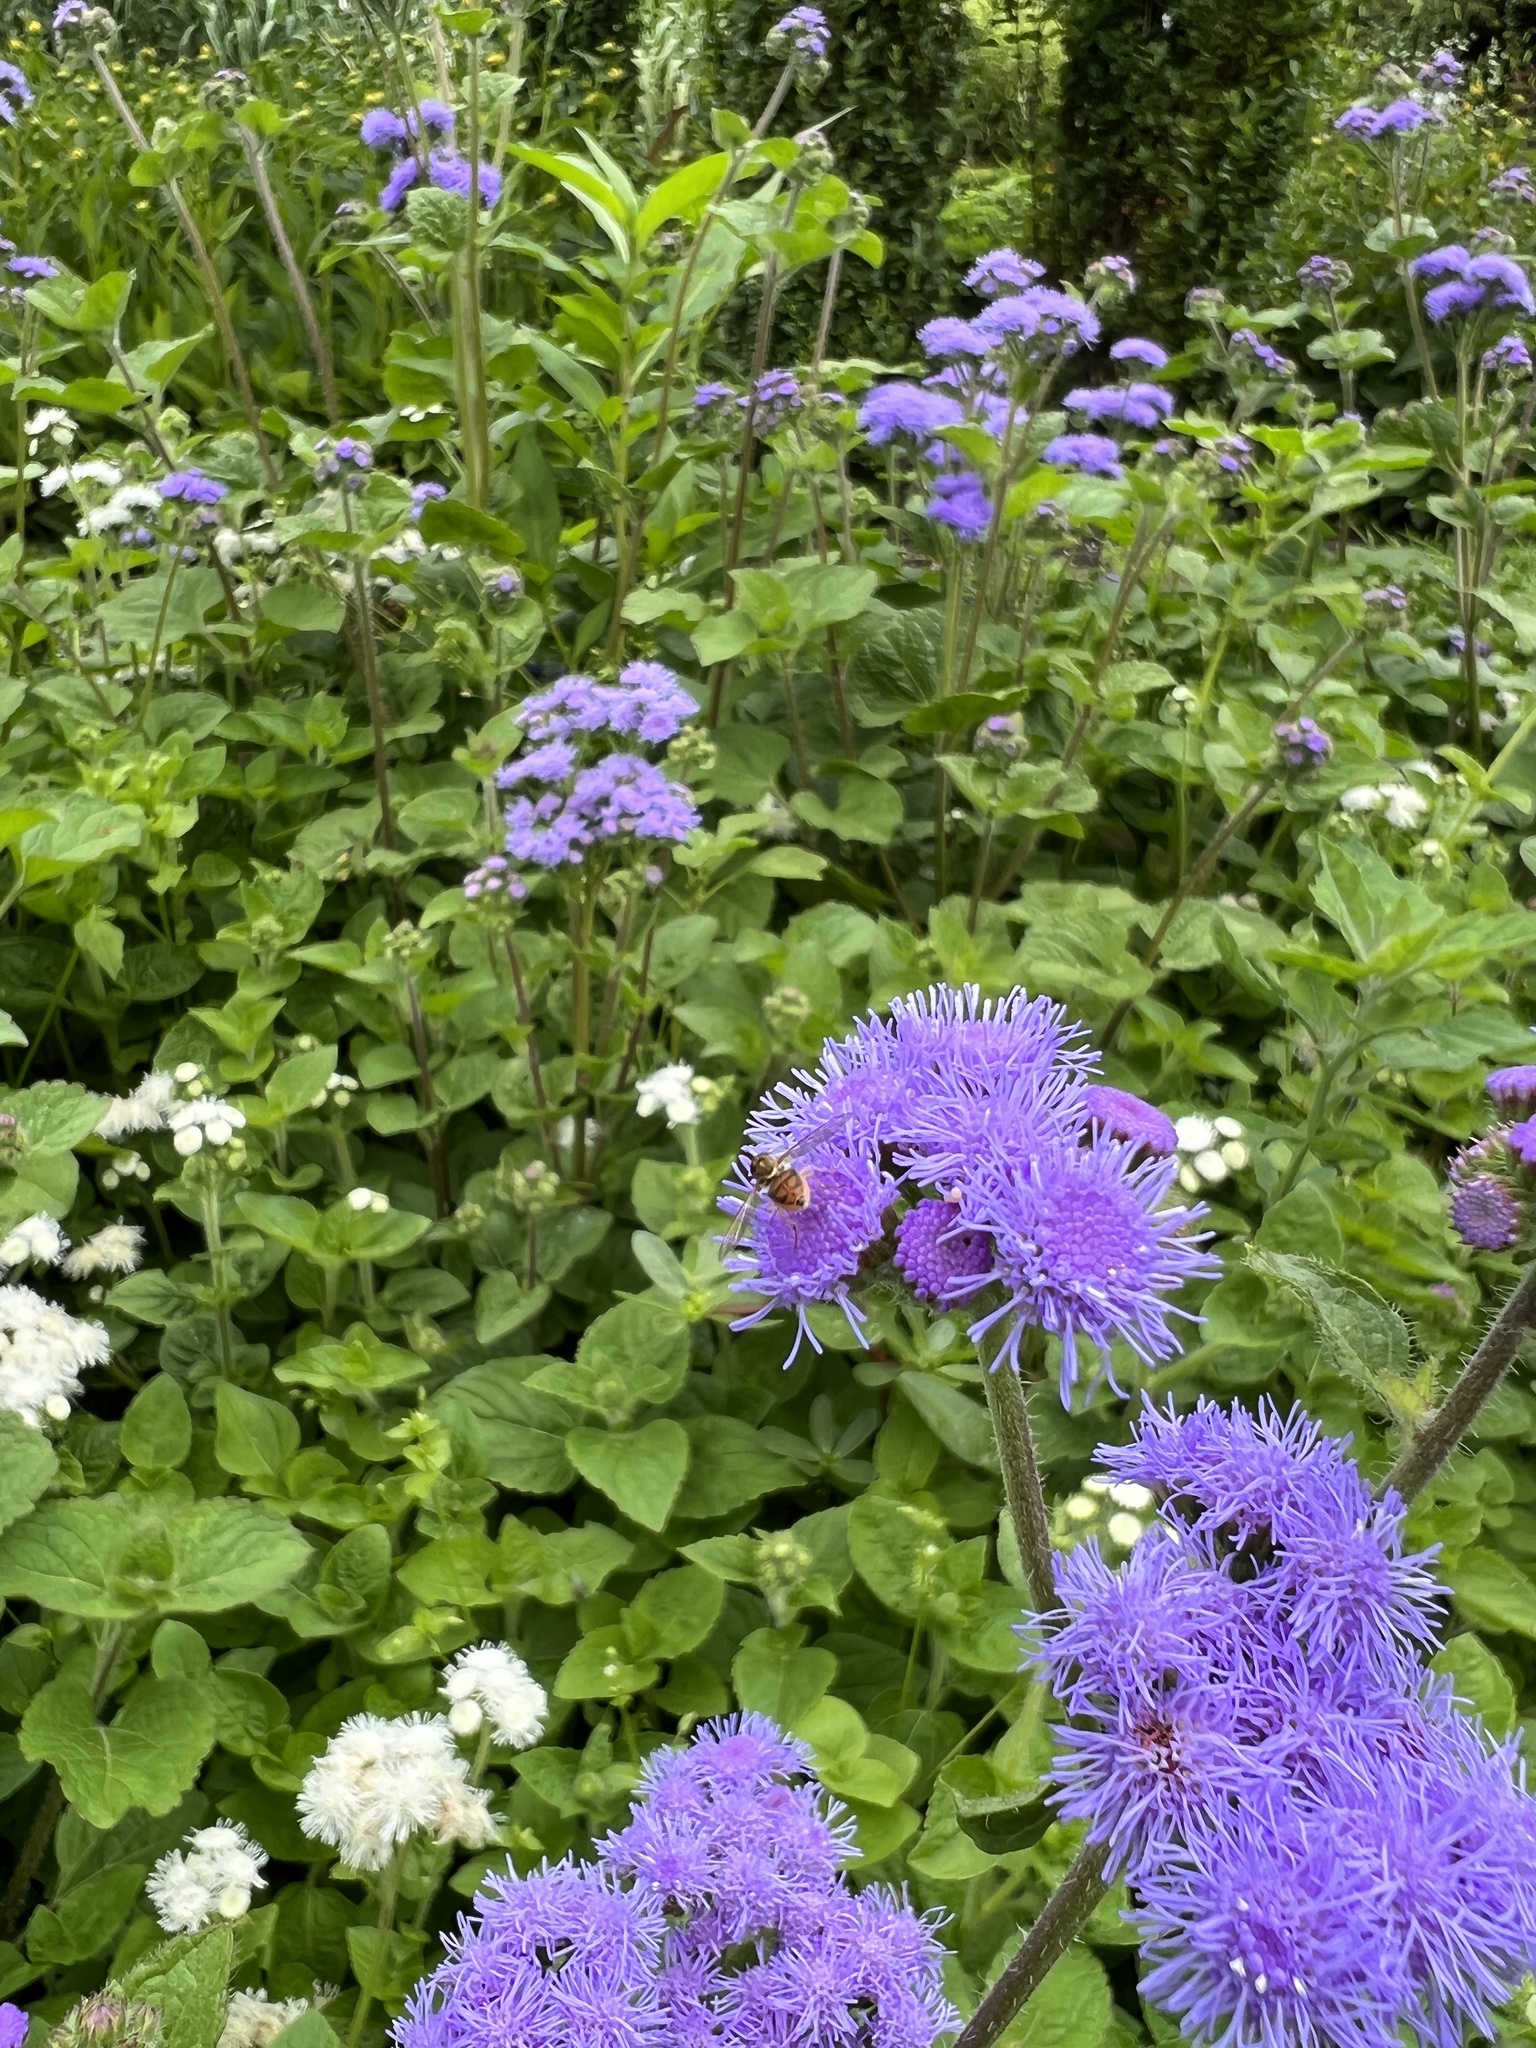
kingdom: Animalia
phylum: Arthropoda
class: Insecta
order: Diptera
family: Syrphidae
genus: Toxomerus
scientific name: Toxomerus marginatus
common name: Syrphid fly
